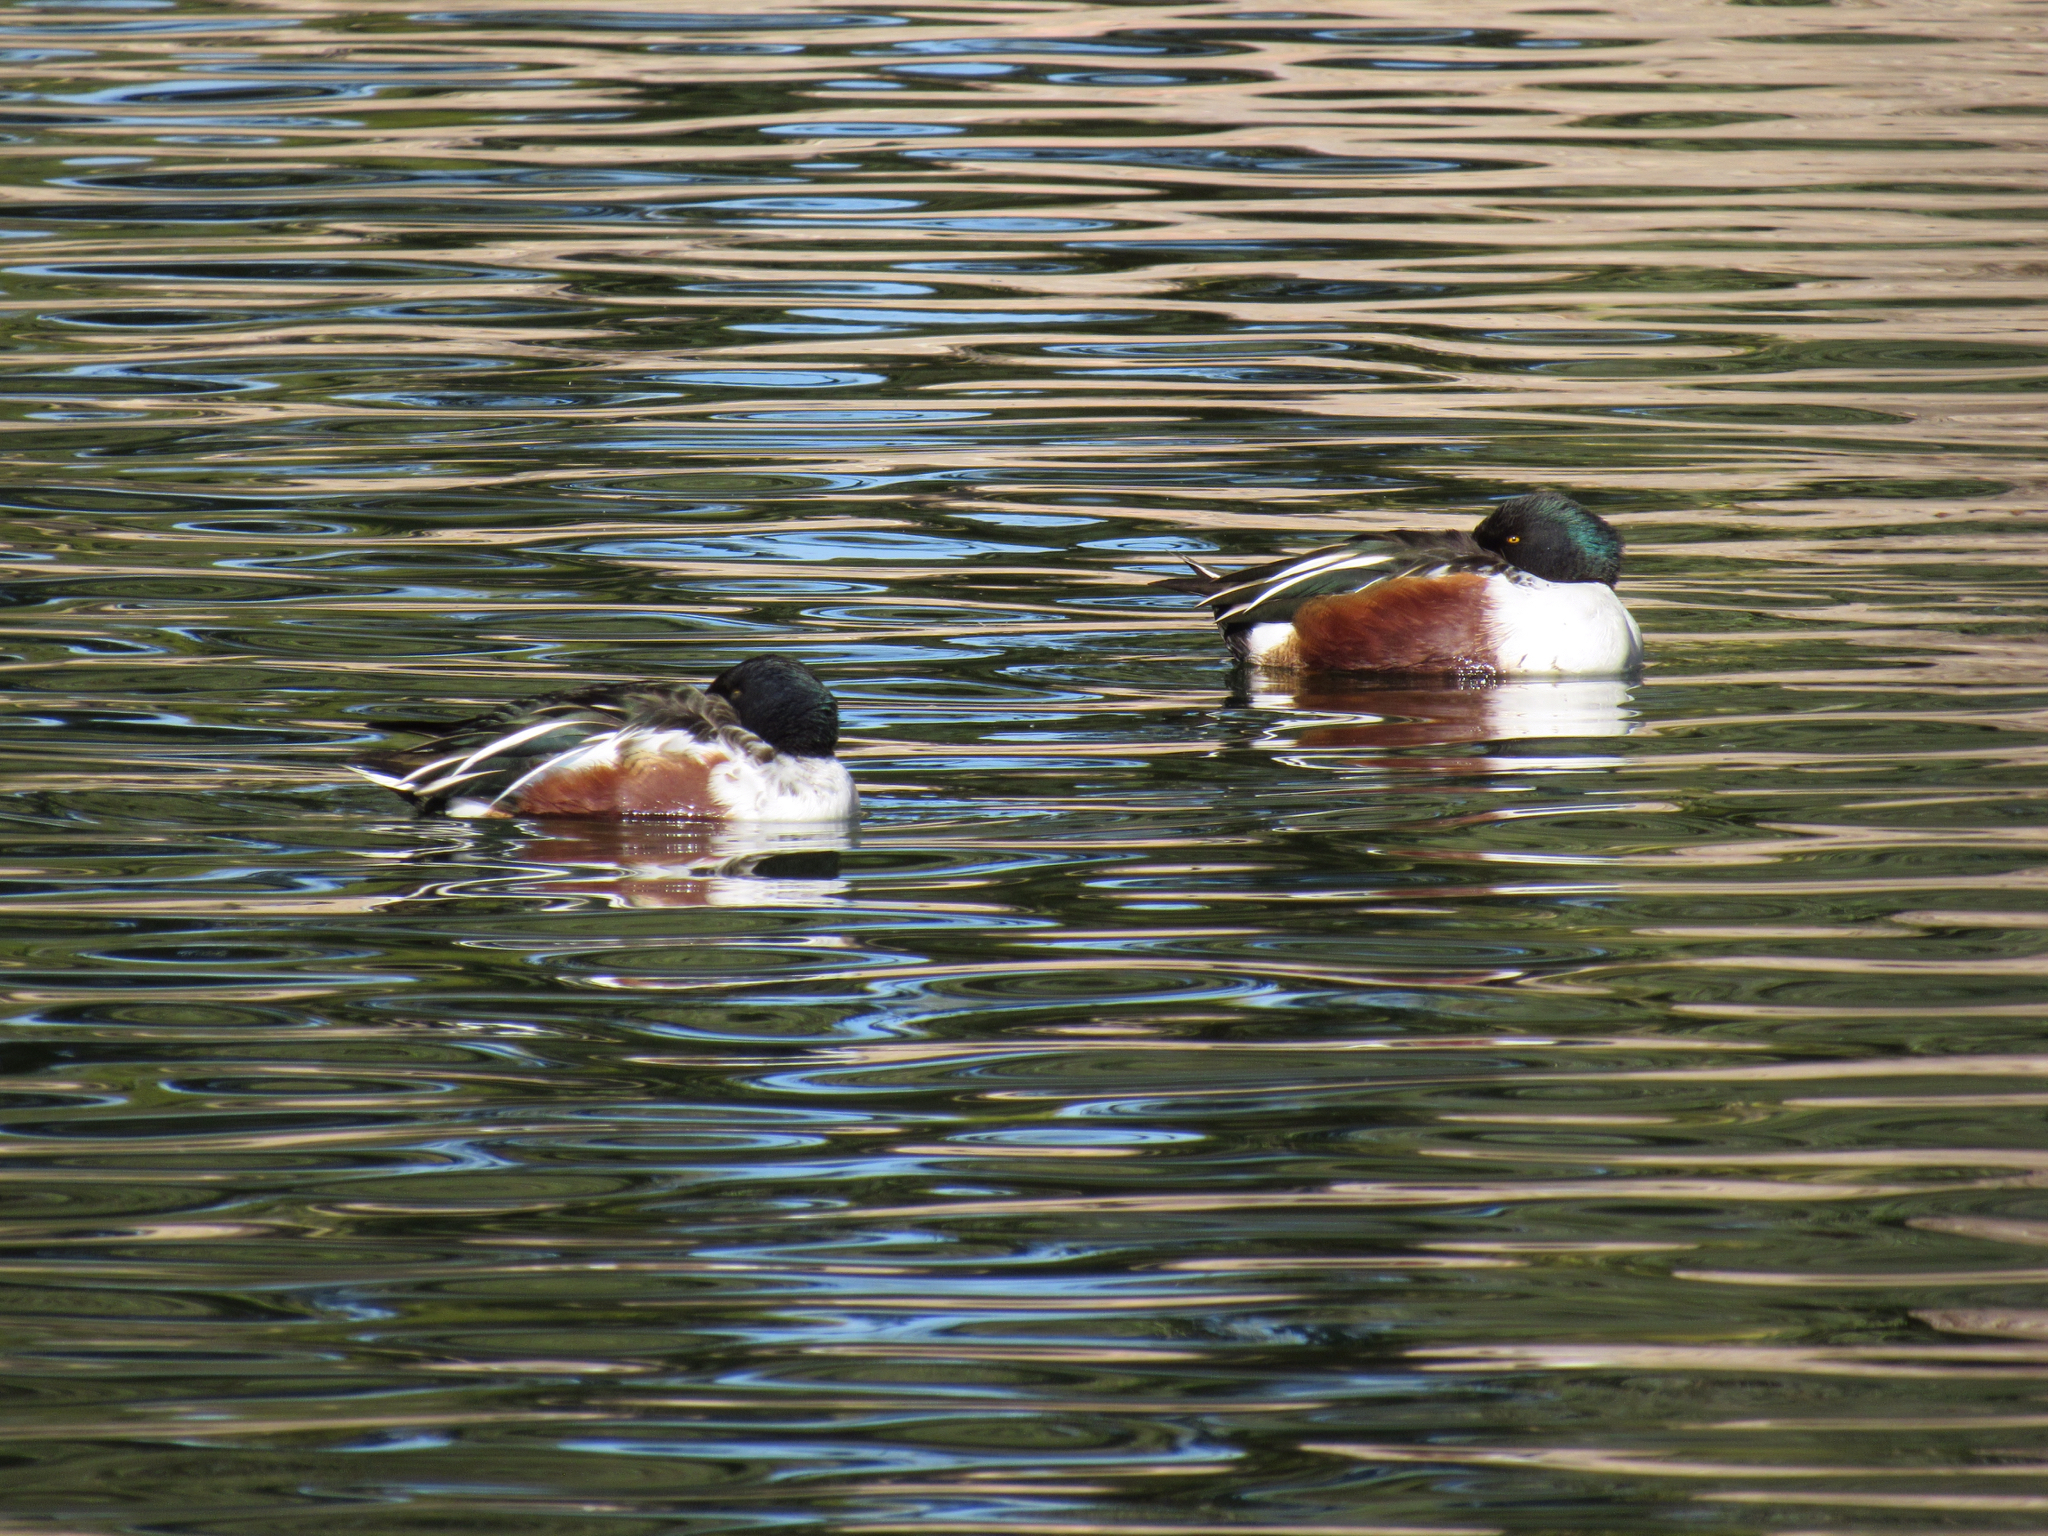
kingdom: Animalia
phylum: Chordata
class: Aves
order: Anseriformes
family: Anatidae
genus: Spatula
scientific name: Spatula clypeata
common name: Northern shoveler
